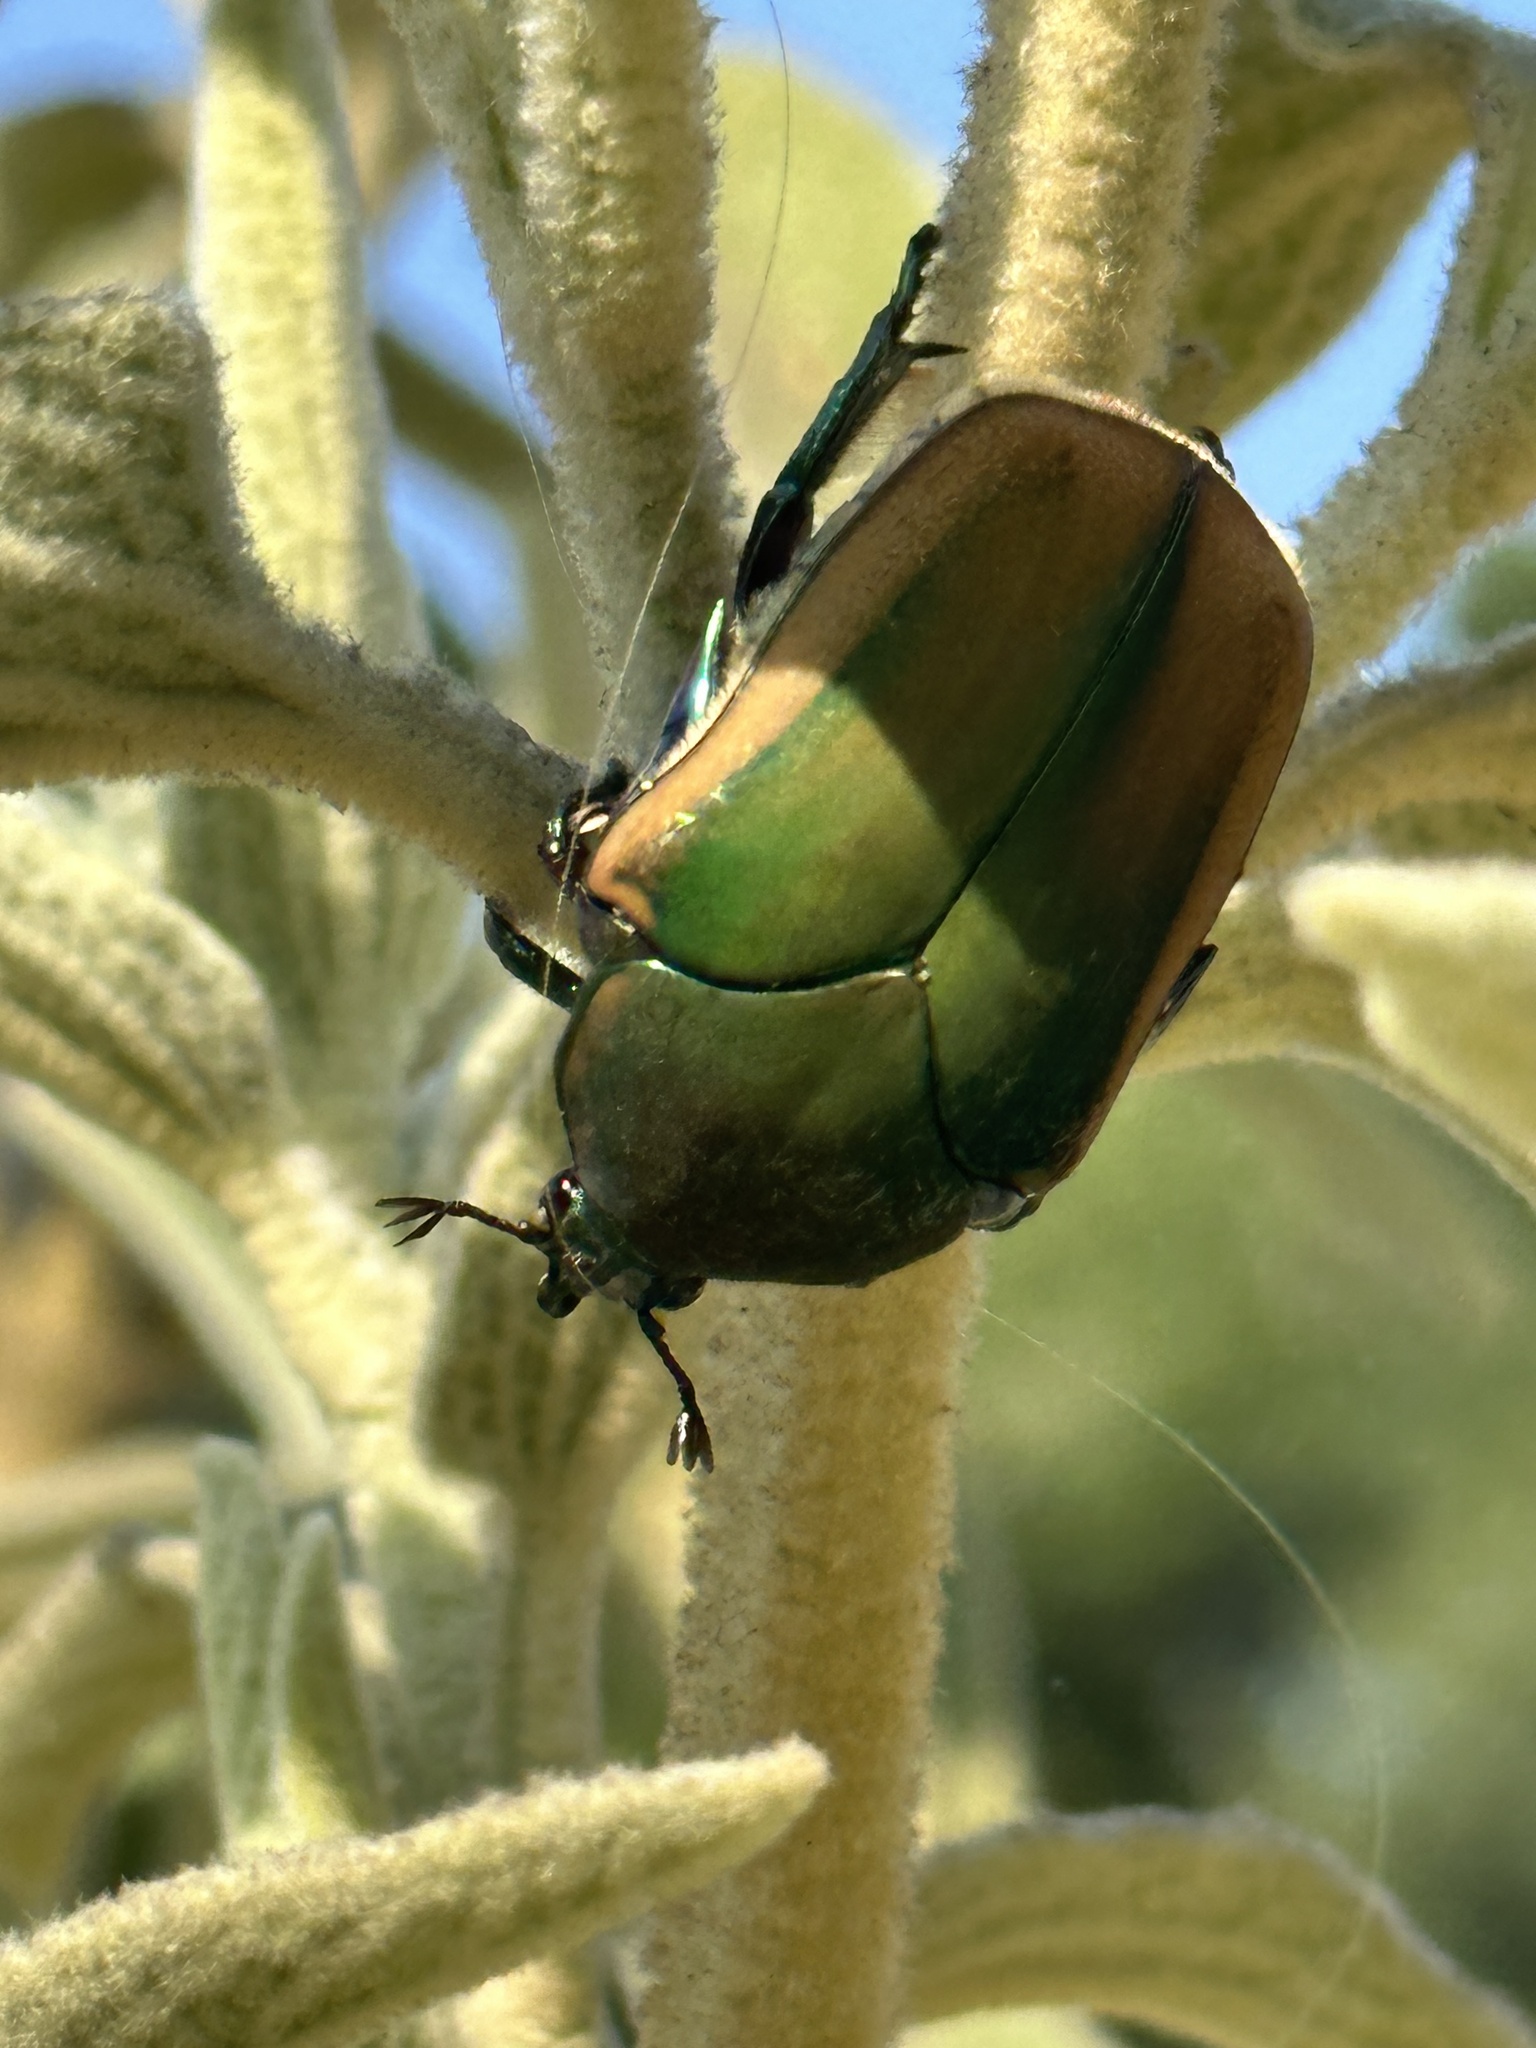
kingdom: Animalia
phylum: Arthropoda
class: Insecta
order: Coleoptera
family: Scarabaeidae
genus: Cotinis
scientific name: Cotinis mutabilis
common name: Figeater beetle
